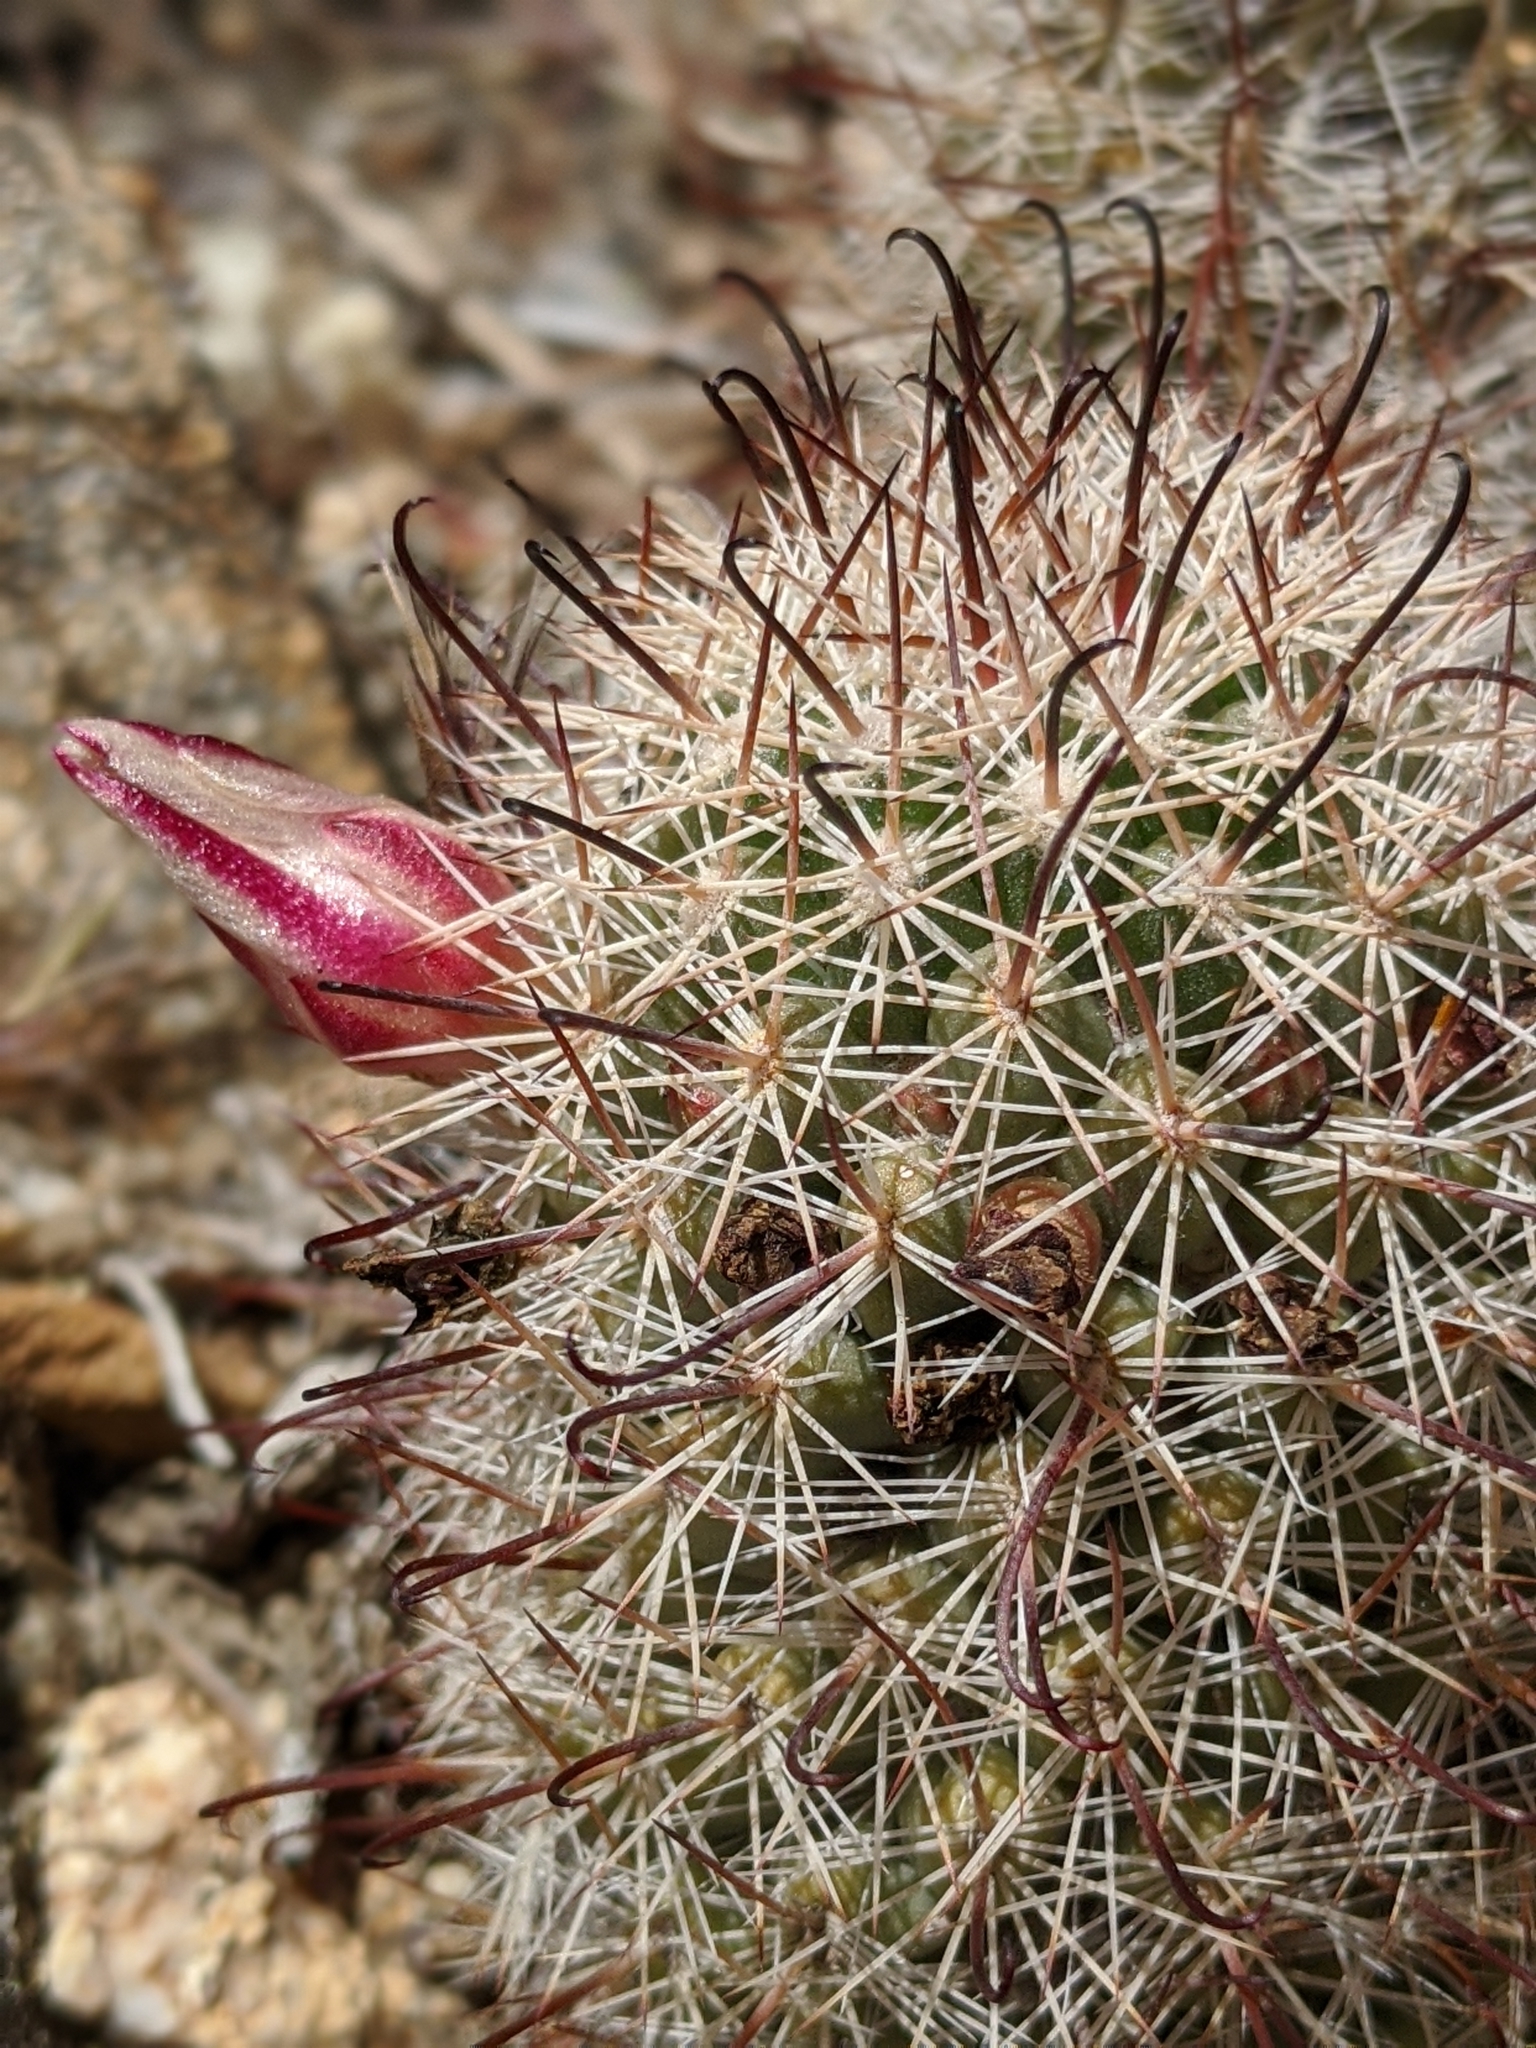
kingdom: Plantae
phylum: Tracheophyta
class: Magnoliopsida
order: Caryophyllales
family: Cactaceae
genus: Cochemiea
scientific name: Cochemiea dioica
